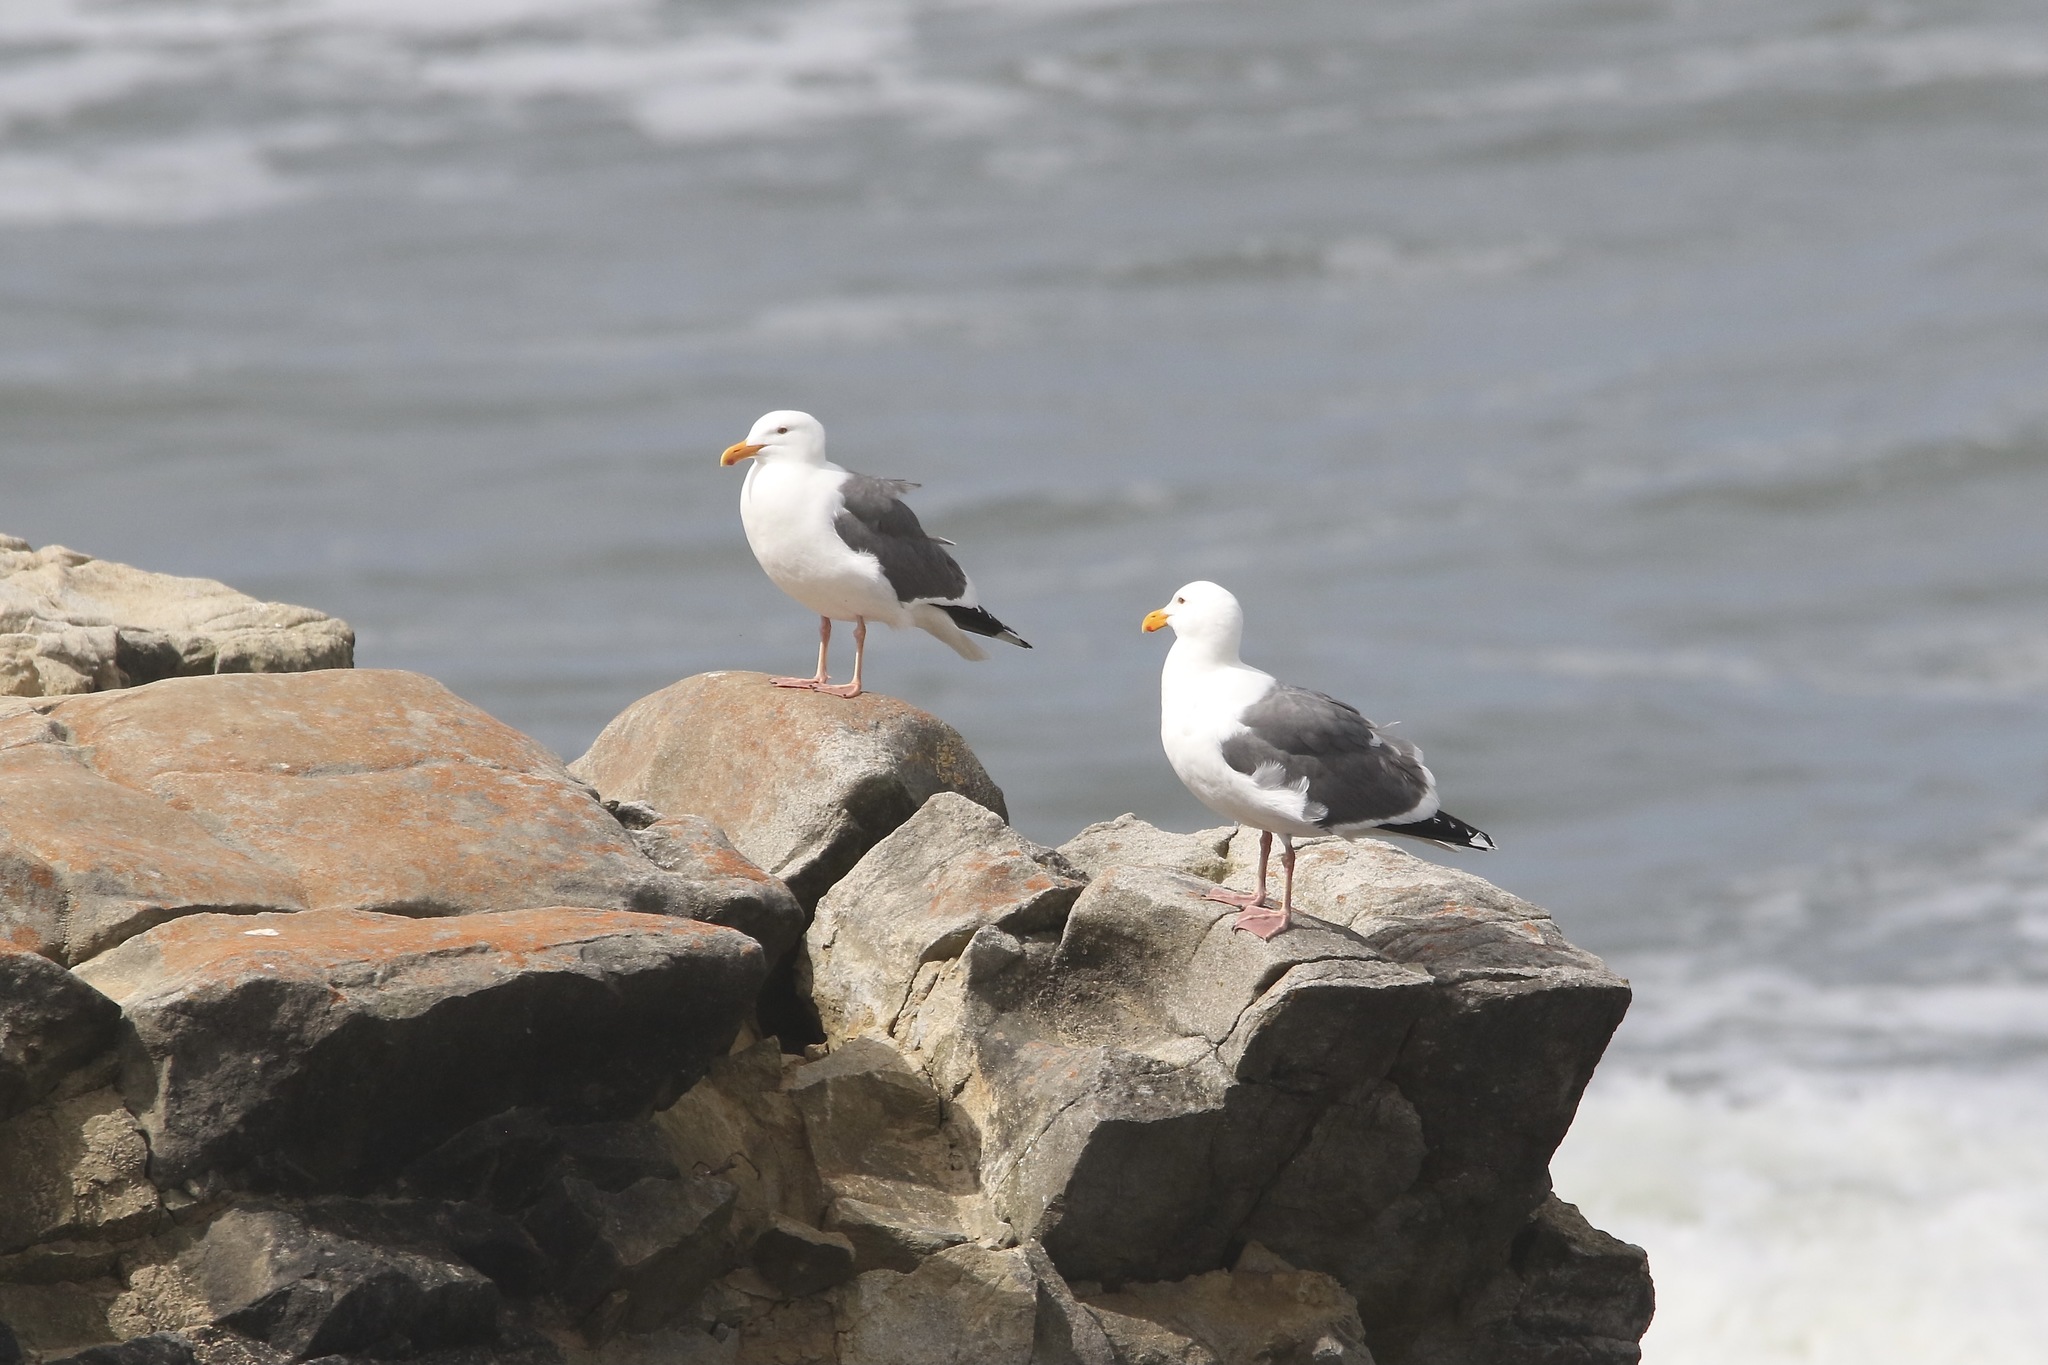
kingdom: Animalia
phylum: Chordata
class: Aves
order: Charadriiformes
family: Laridae
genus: Larus
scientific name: Larus occidentalis
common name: Western gull
